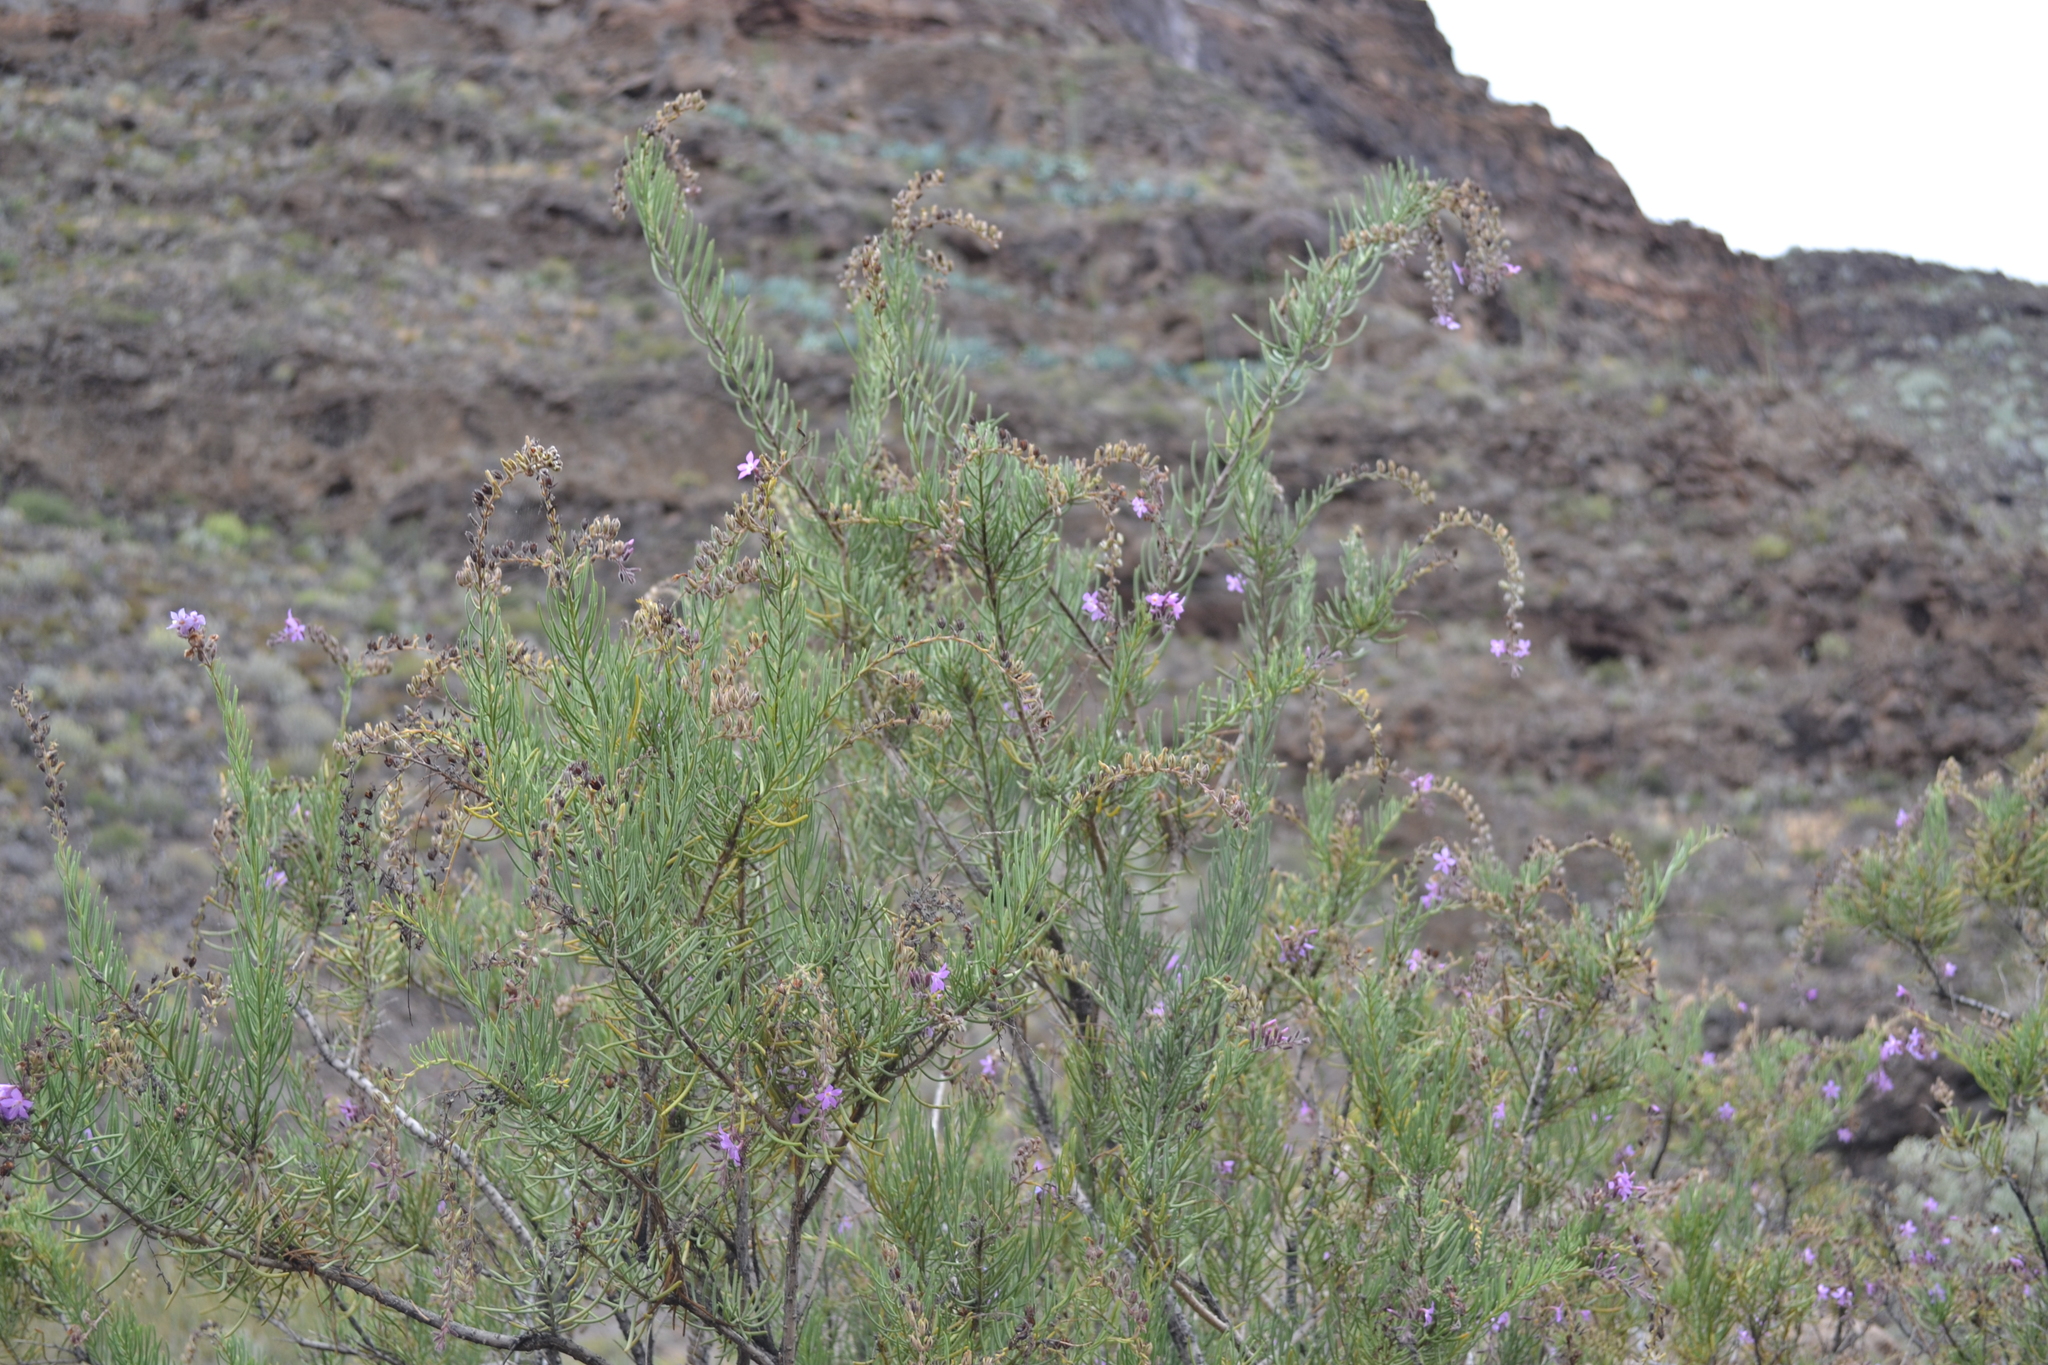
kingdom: Plantae
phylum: Tracheophyta
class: Magnoliopsida
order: Lamiales
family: Plantaginaceae
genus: Campylanthus
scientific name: Campylanthus salsoloides
